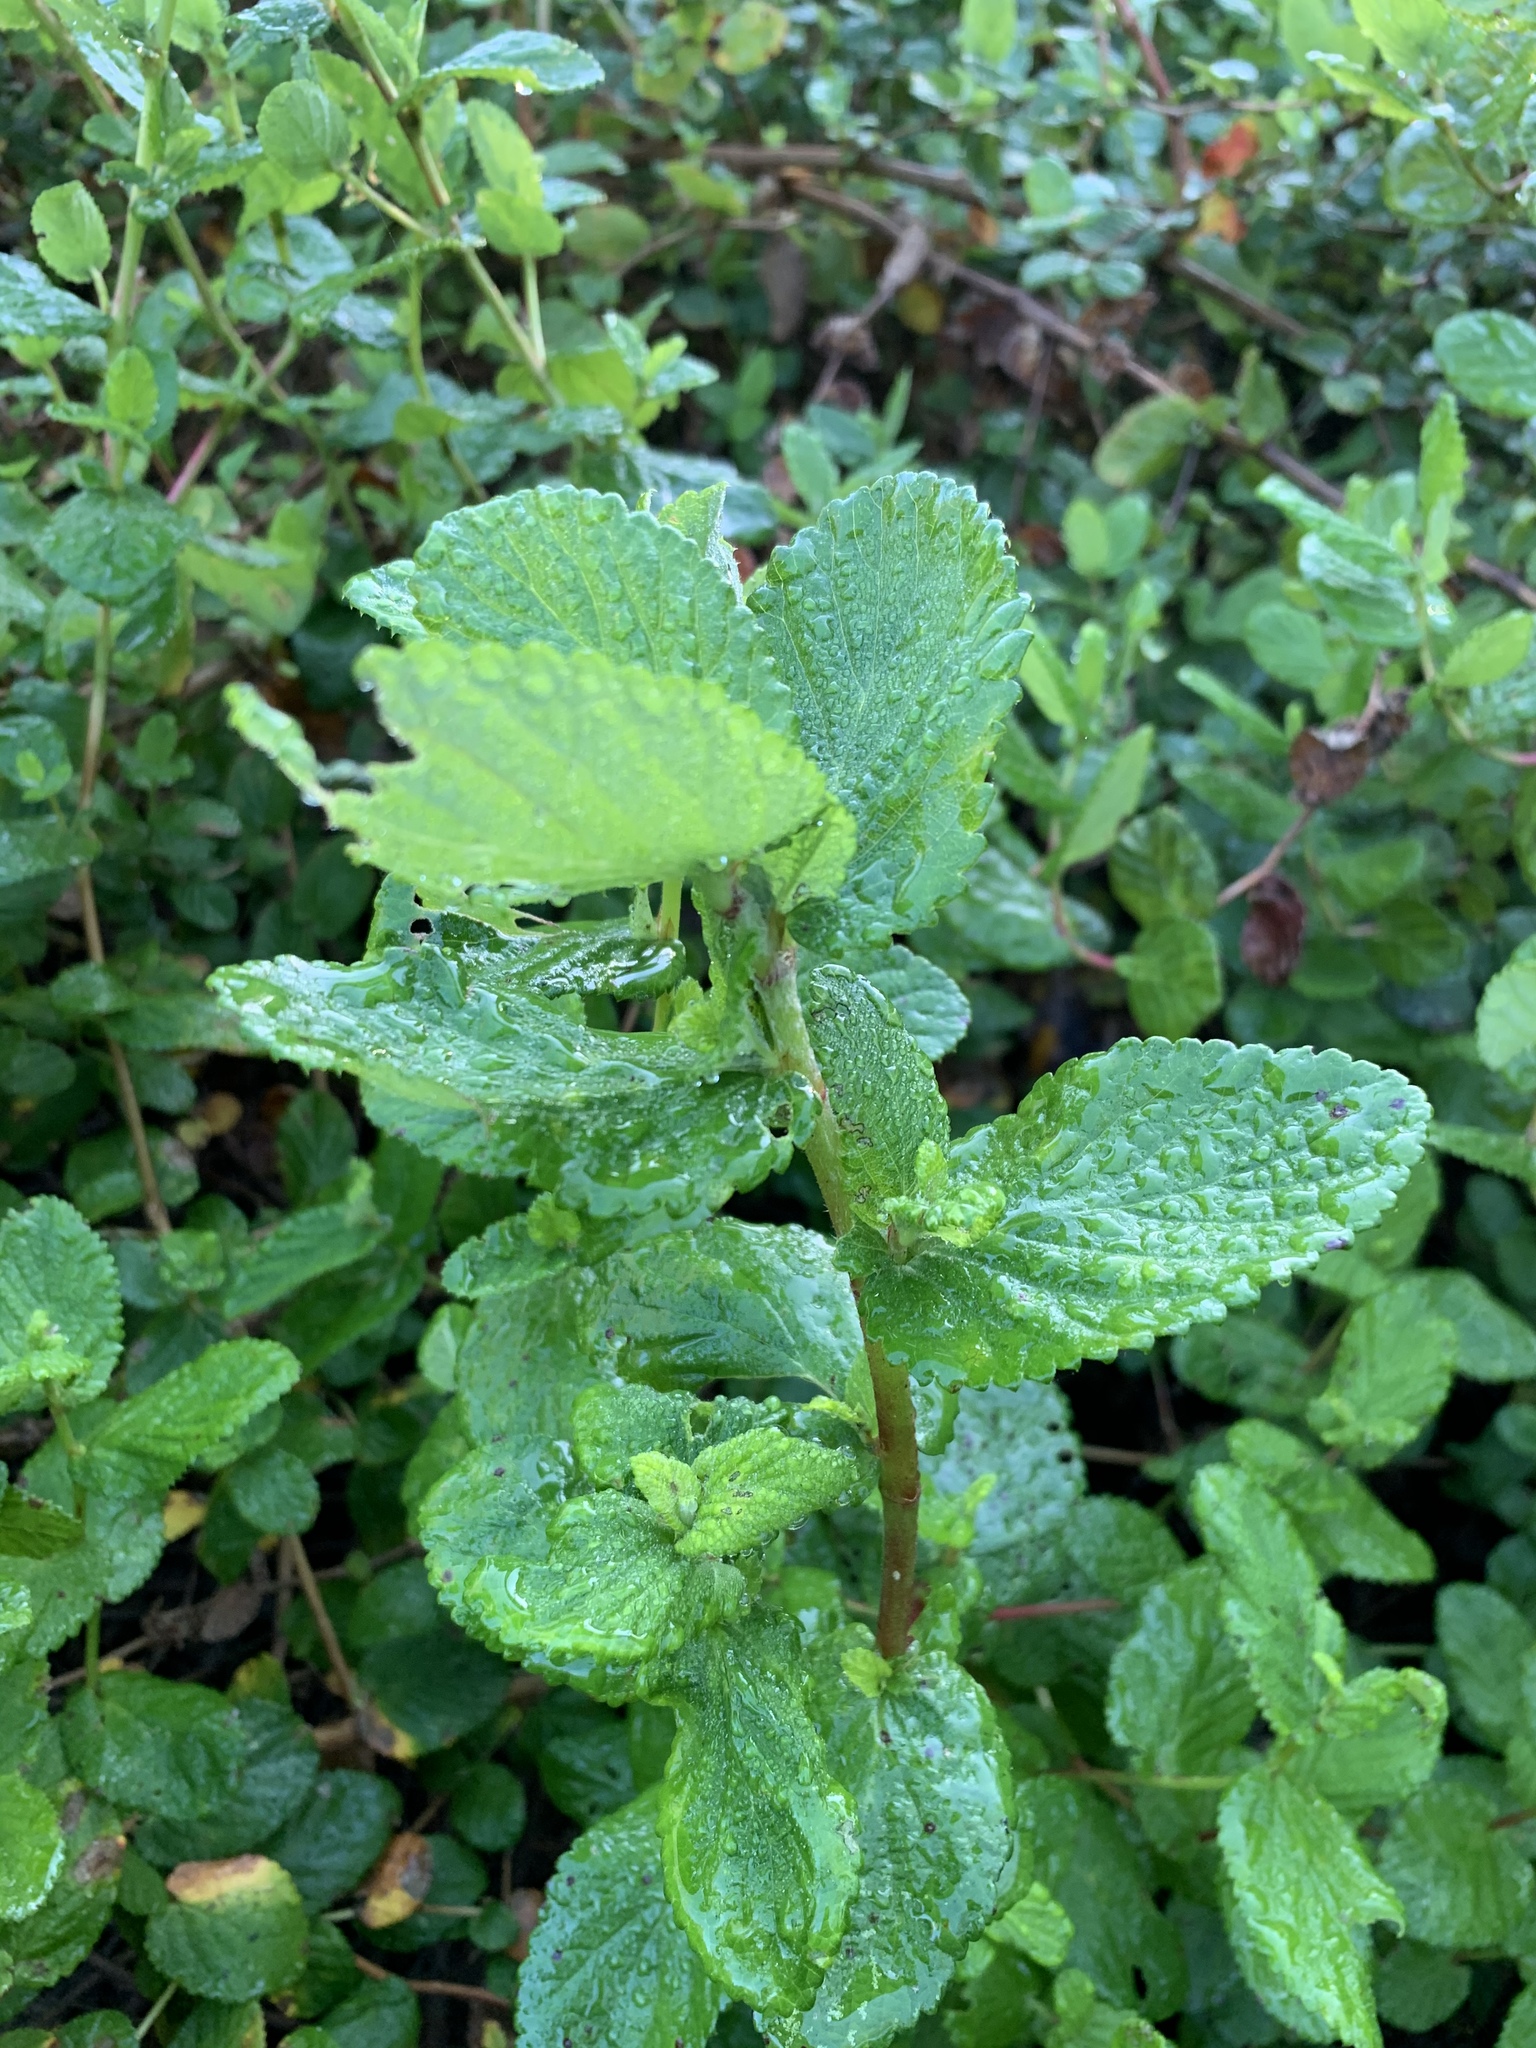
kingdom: Plantae
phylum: Tracheophyta
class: Magnoliopsida
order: Rosales
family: Rosaceae
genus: Cliffortia
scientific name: Cliffortia odorata
